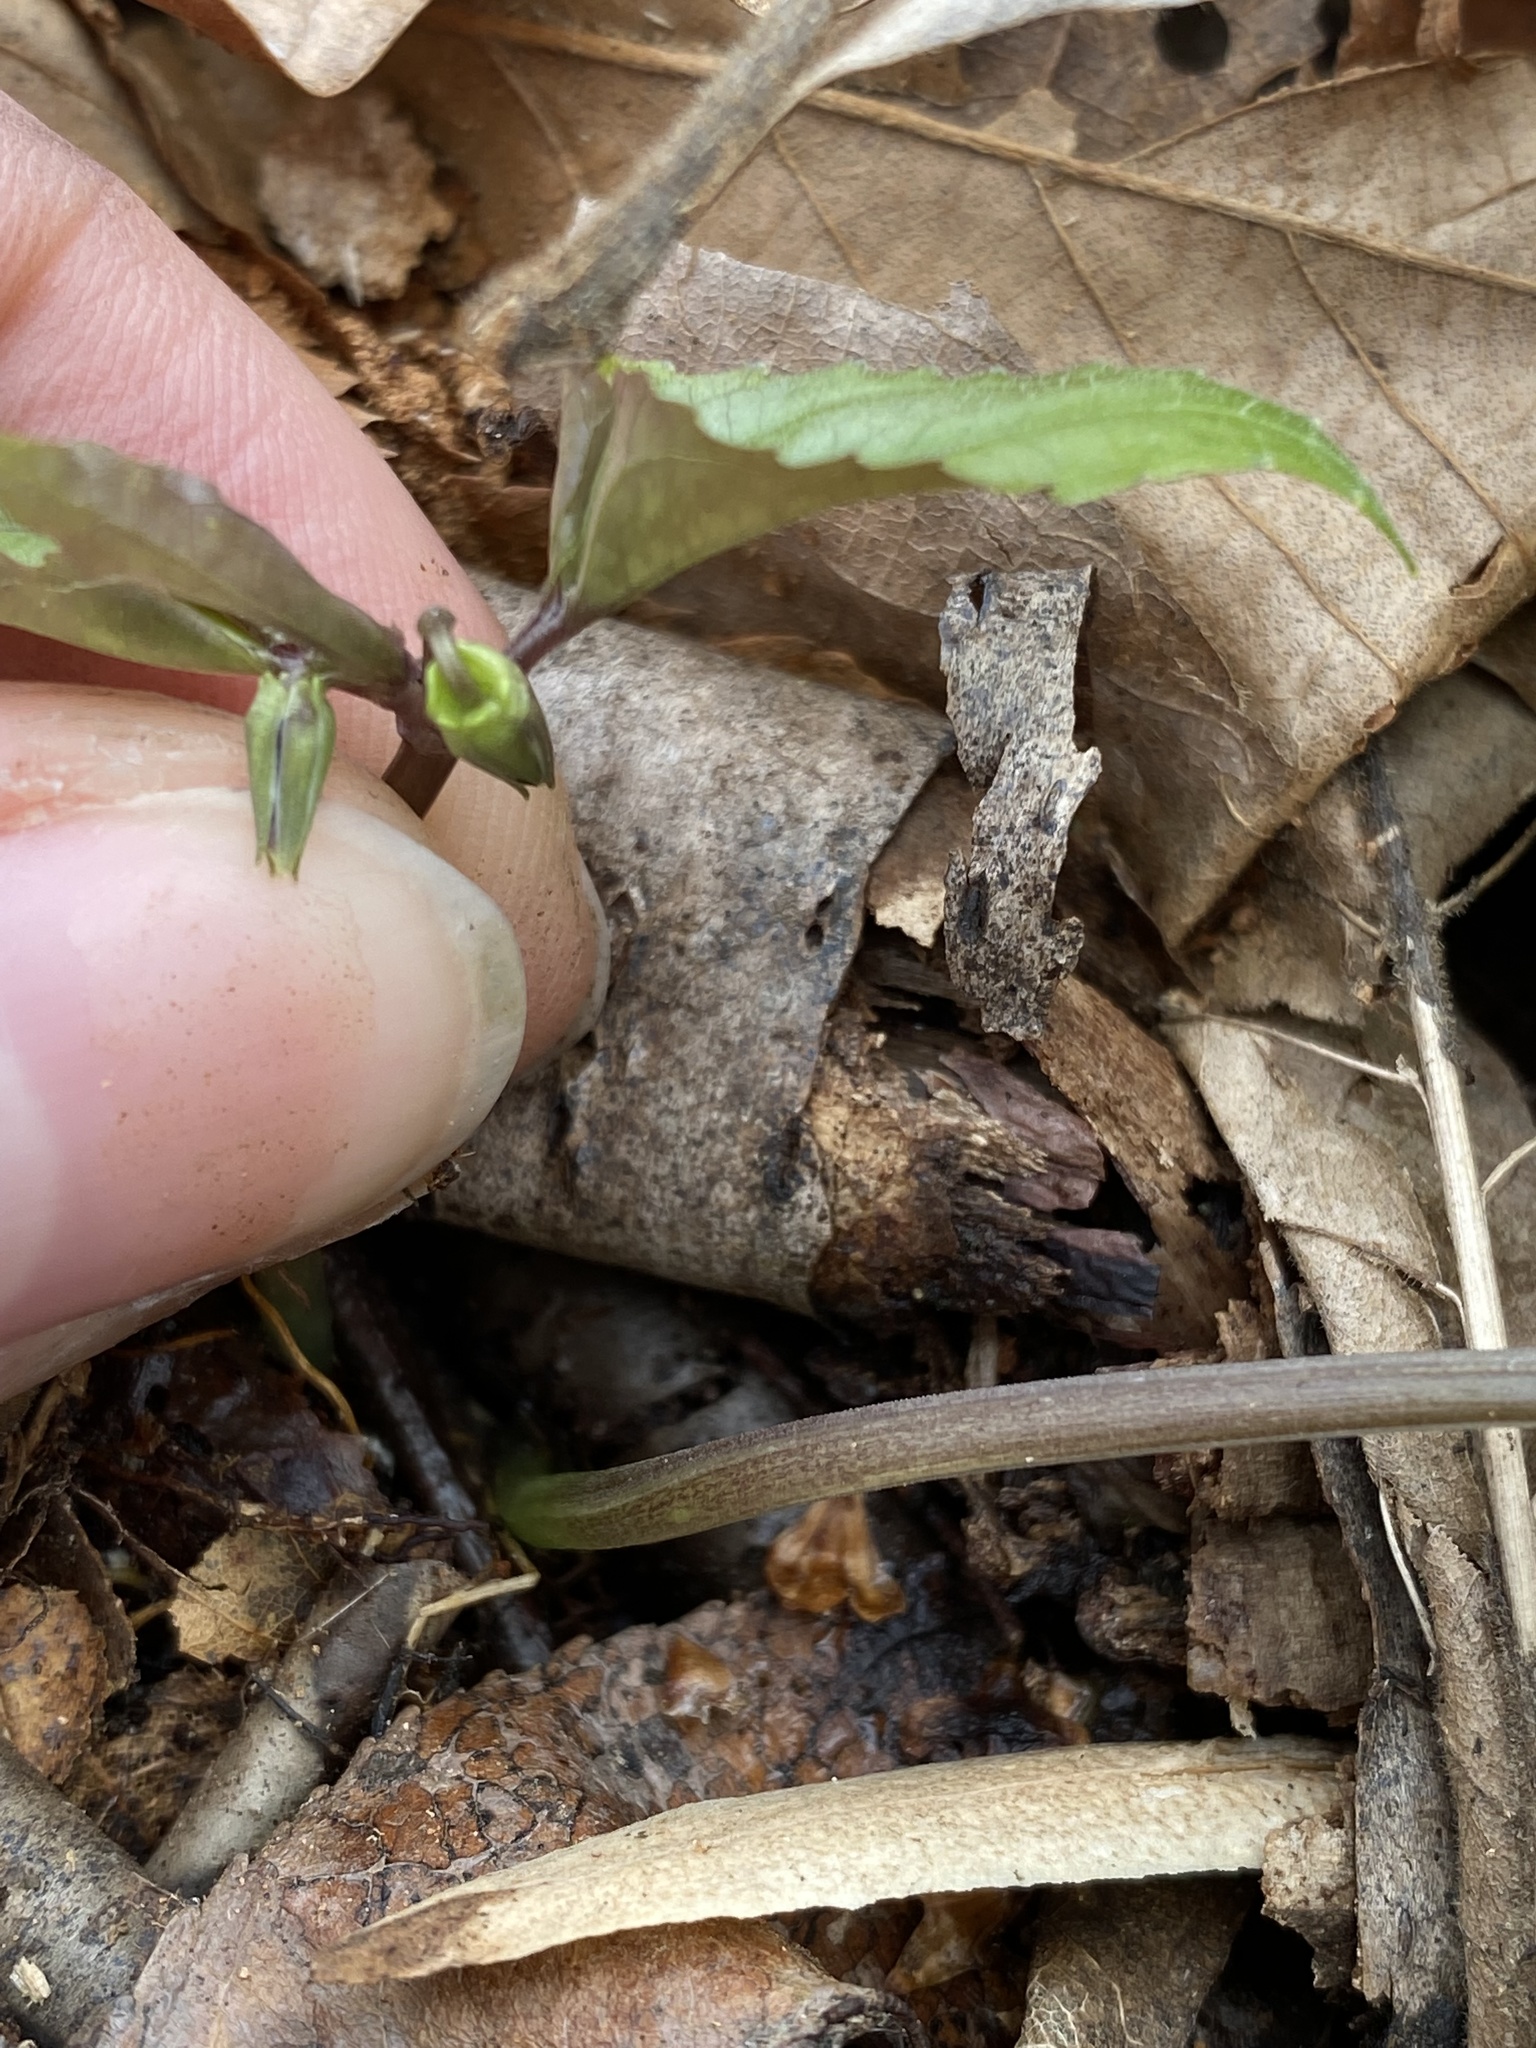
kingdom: Plantae
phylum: Tracheophyta
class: Magnoliopsida
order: Malpighiales
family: Violaceae
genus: Viola
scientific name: Viola hastata
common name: Spear-leaf violet
